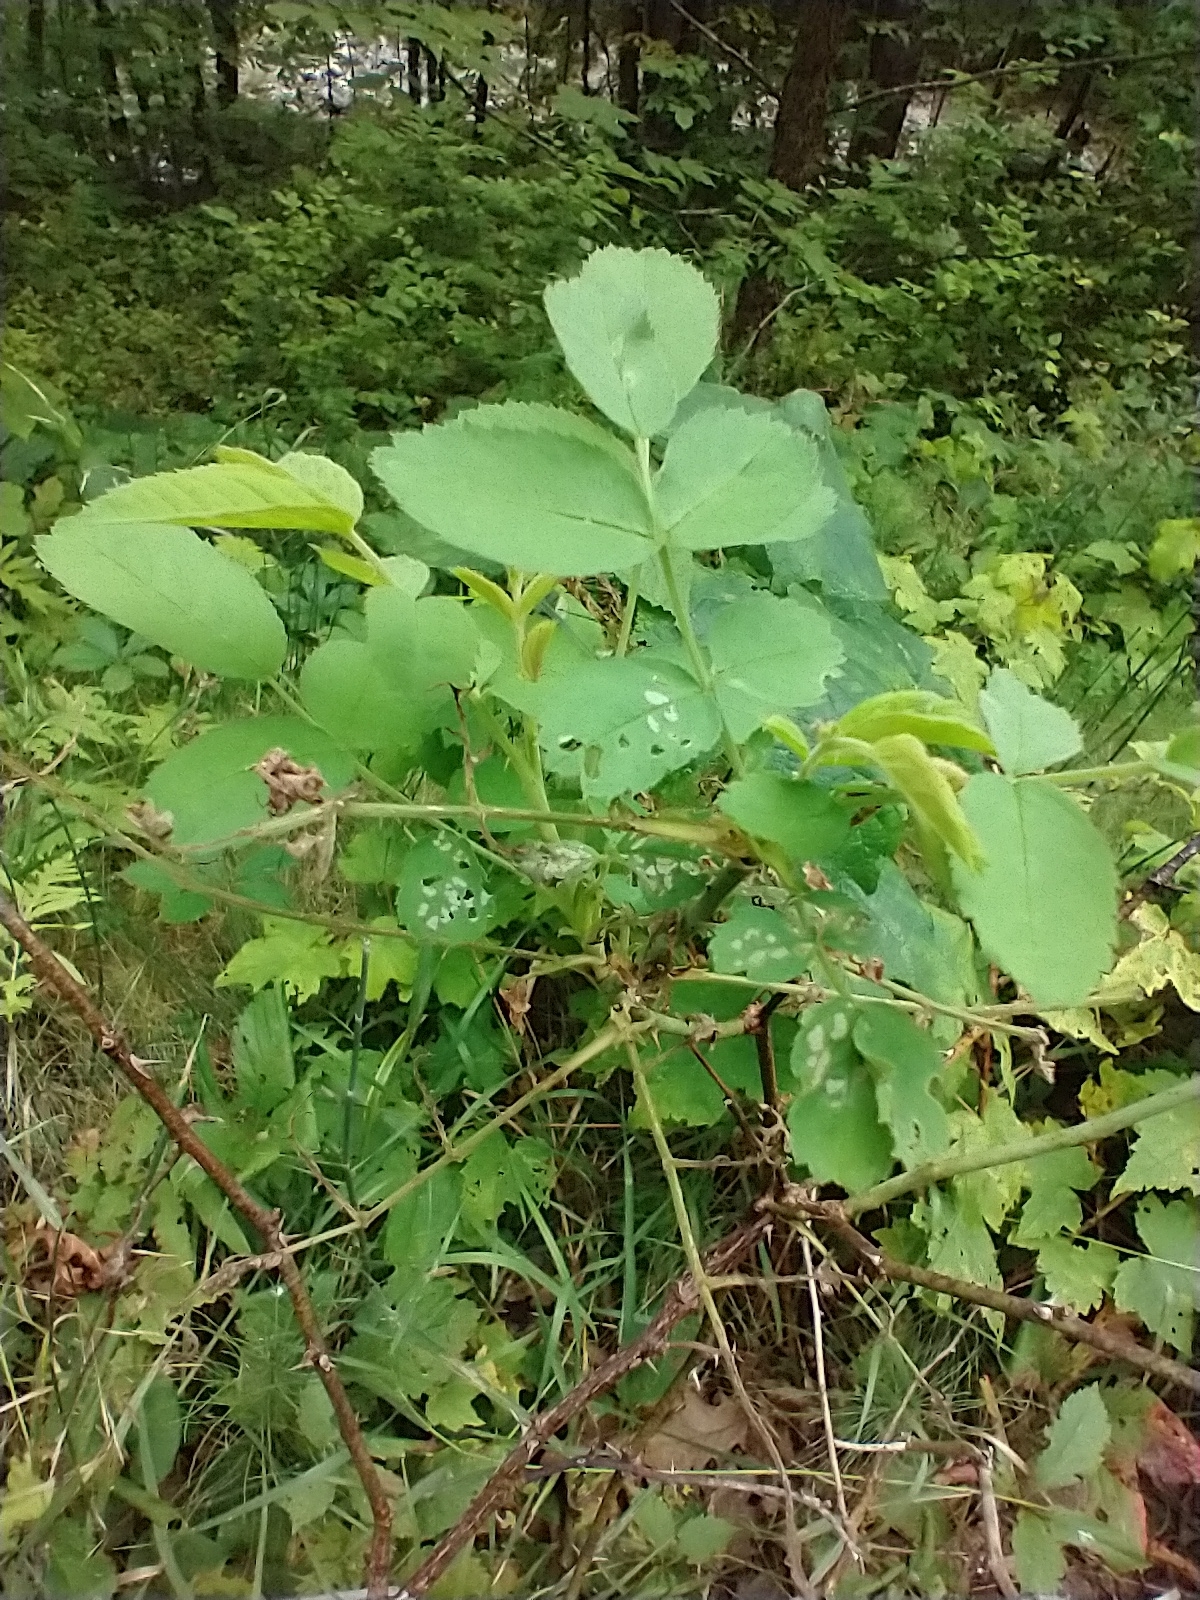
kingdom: Plantae
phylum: Tracheophyta
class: Magnoliopsida
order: Rosales
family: Rosaceae
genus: Rosa
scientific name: Rosa sherardii
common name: Sherard's downy rose
